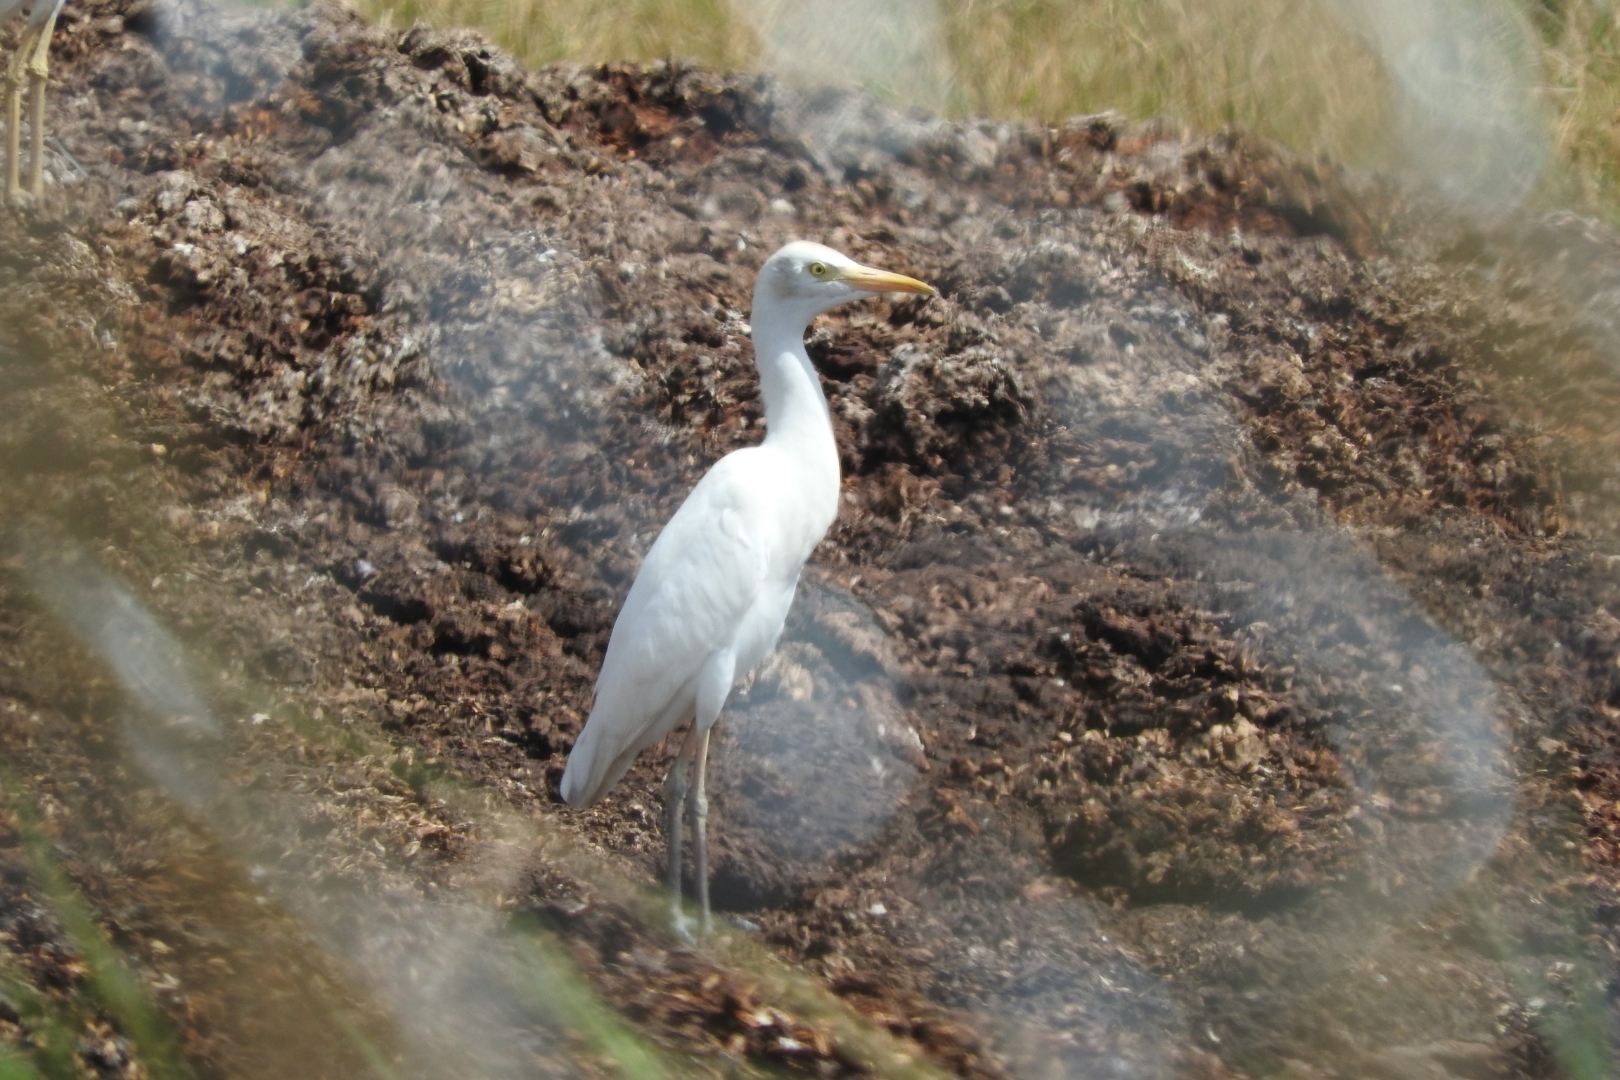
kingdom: Animalia
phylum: Chordata
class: Aves
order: Pelecaniformes
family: Ardeidae
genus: Bubulcus
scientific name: Bubulcus ibis
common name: Cattle egret
